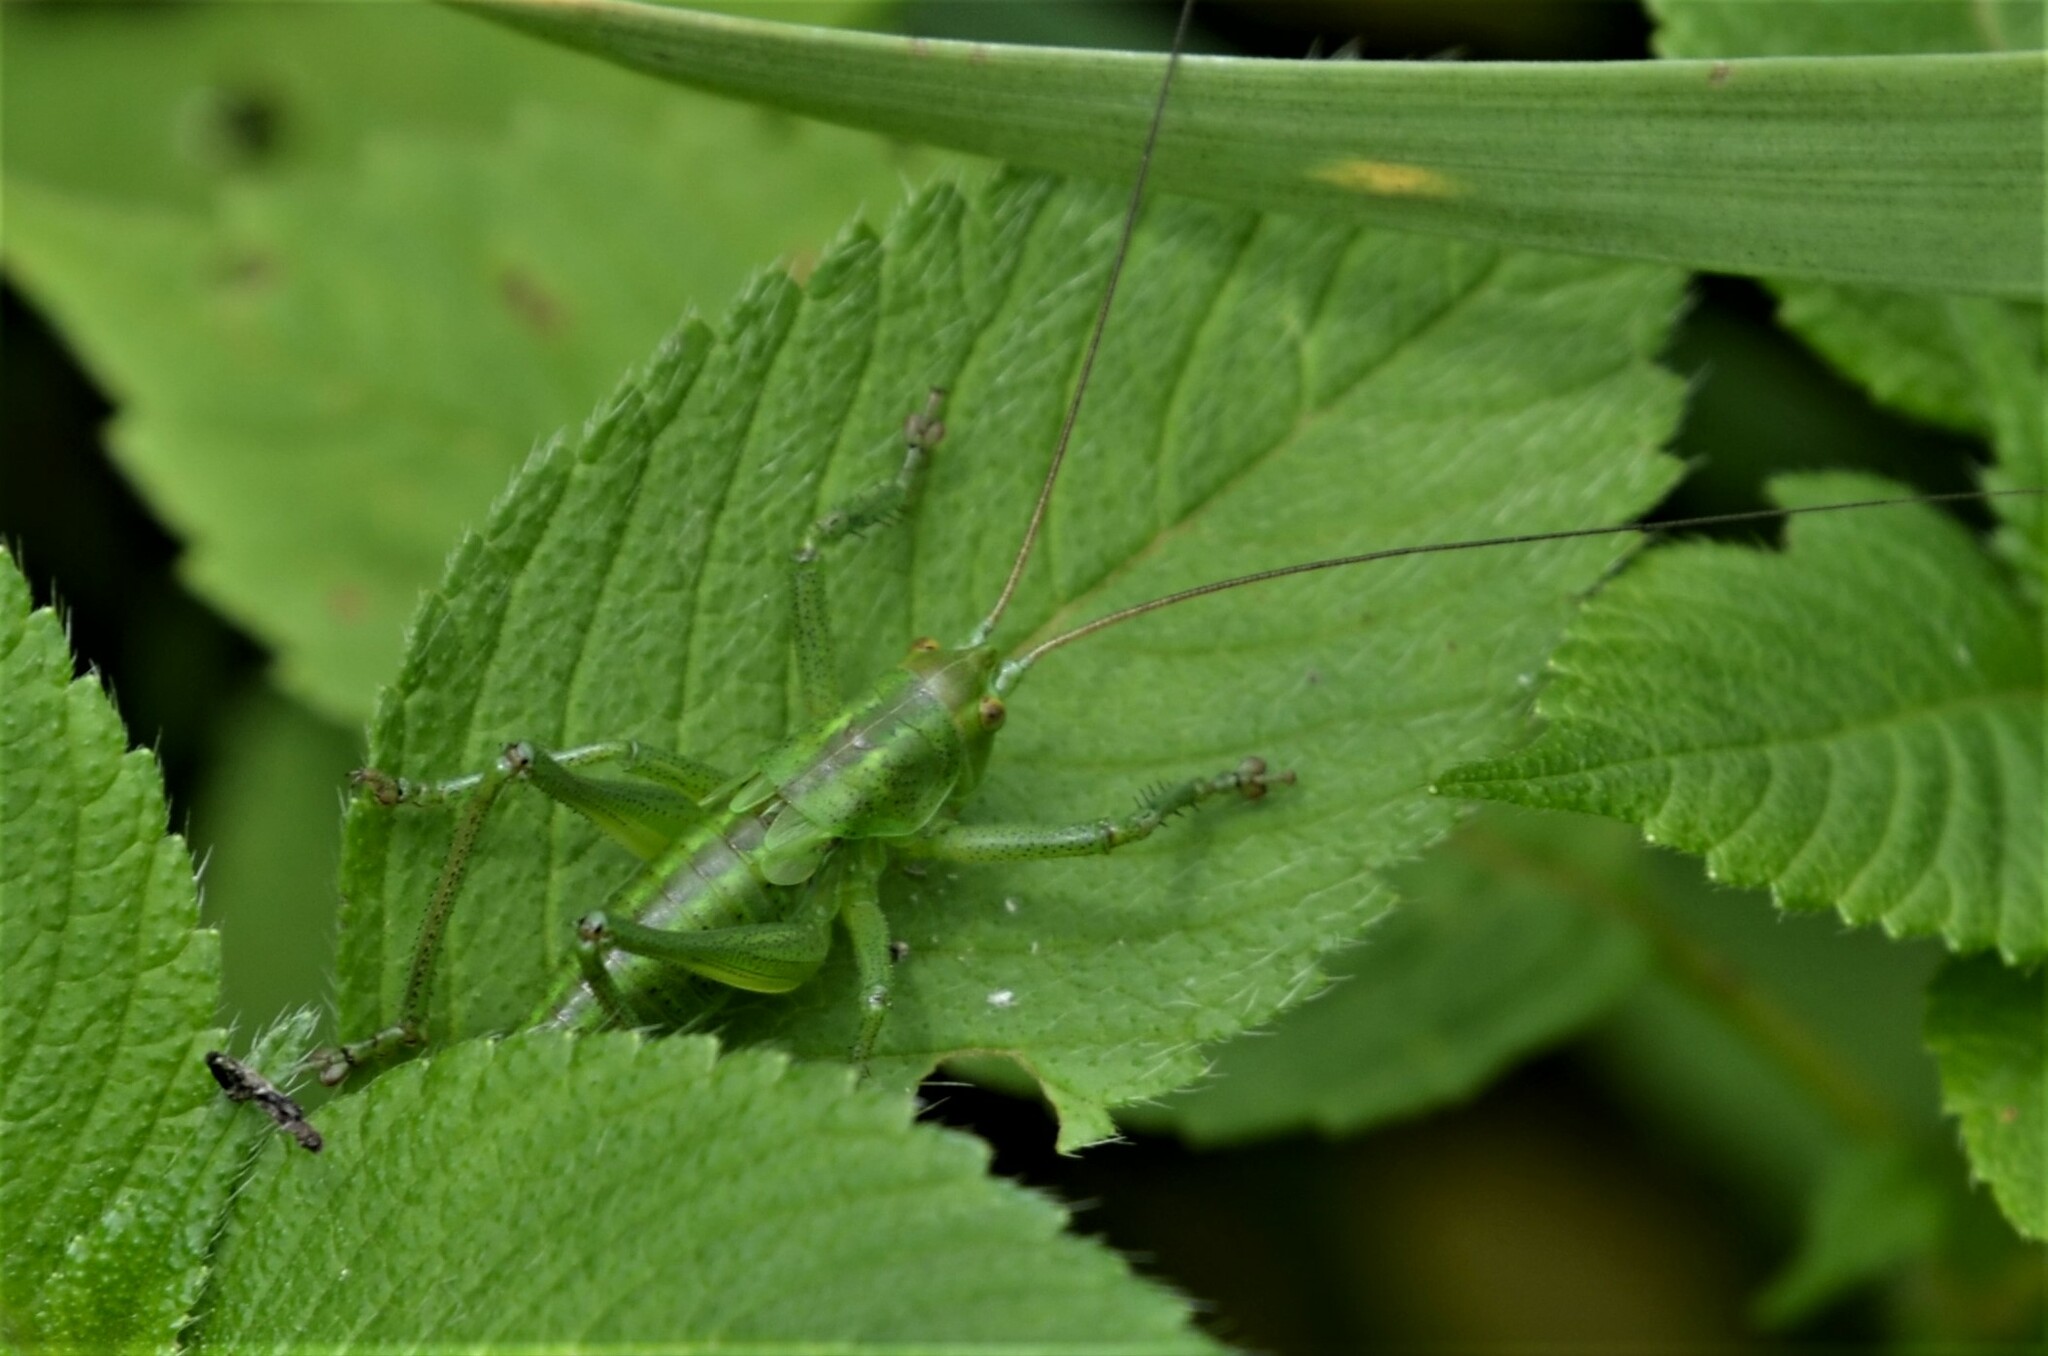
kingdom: Animalia
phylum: Arthropoda
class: Insecta
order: Orthoptera
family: Tettigoniidae
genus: Tettigonia
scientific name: Tettigonia cantans
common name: Upland green bush-cricket
